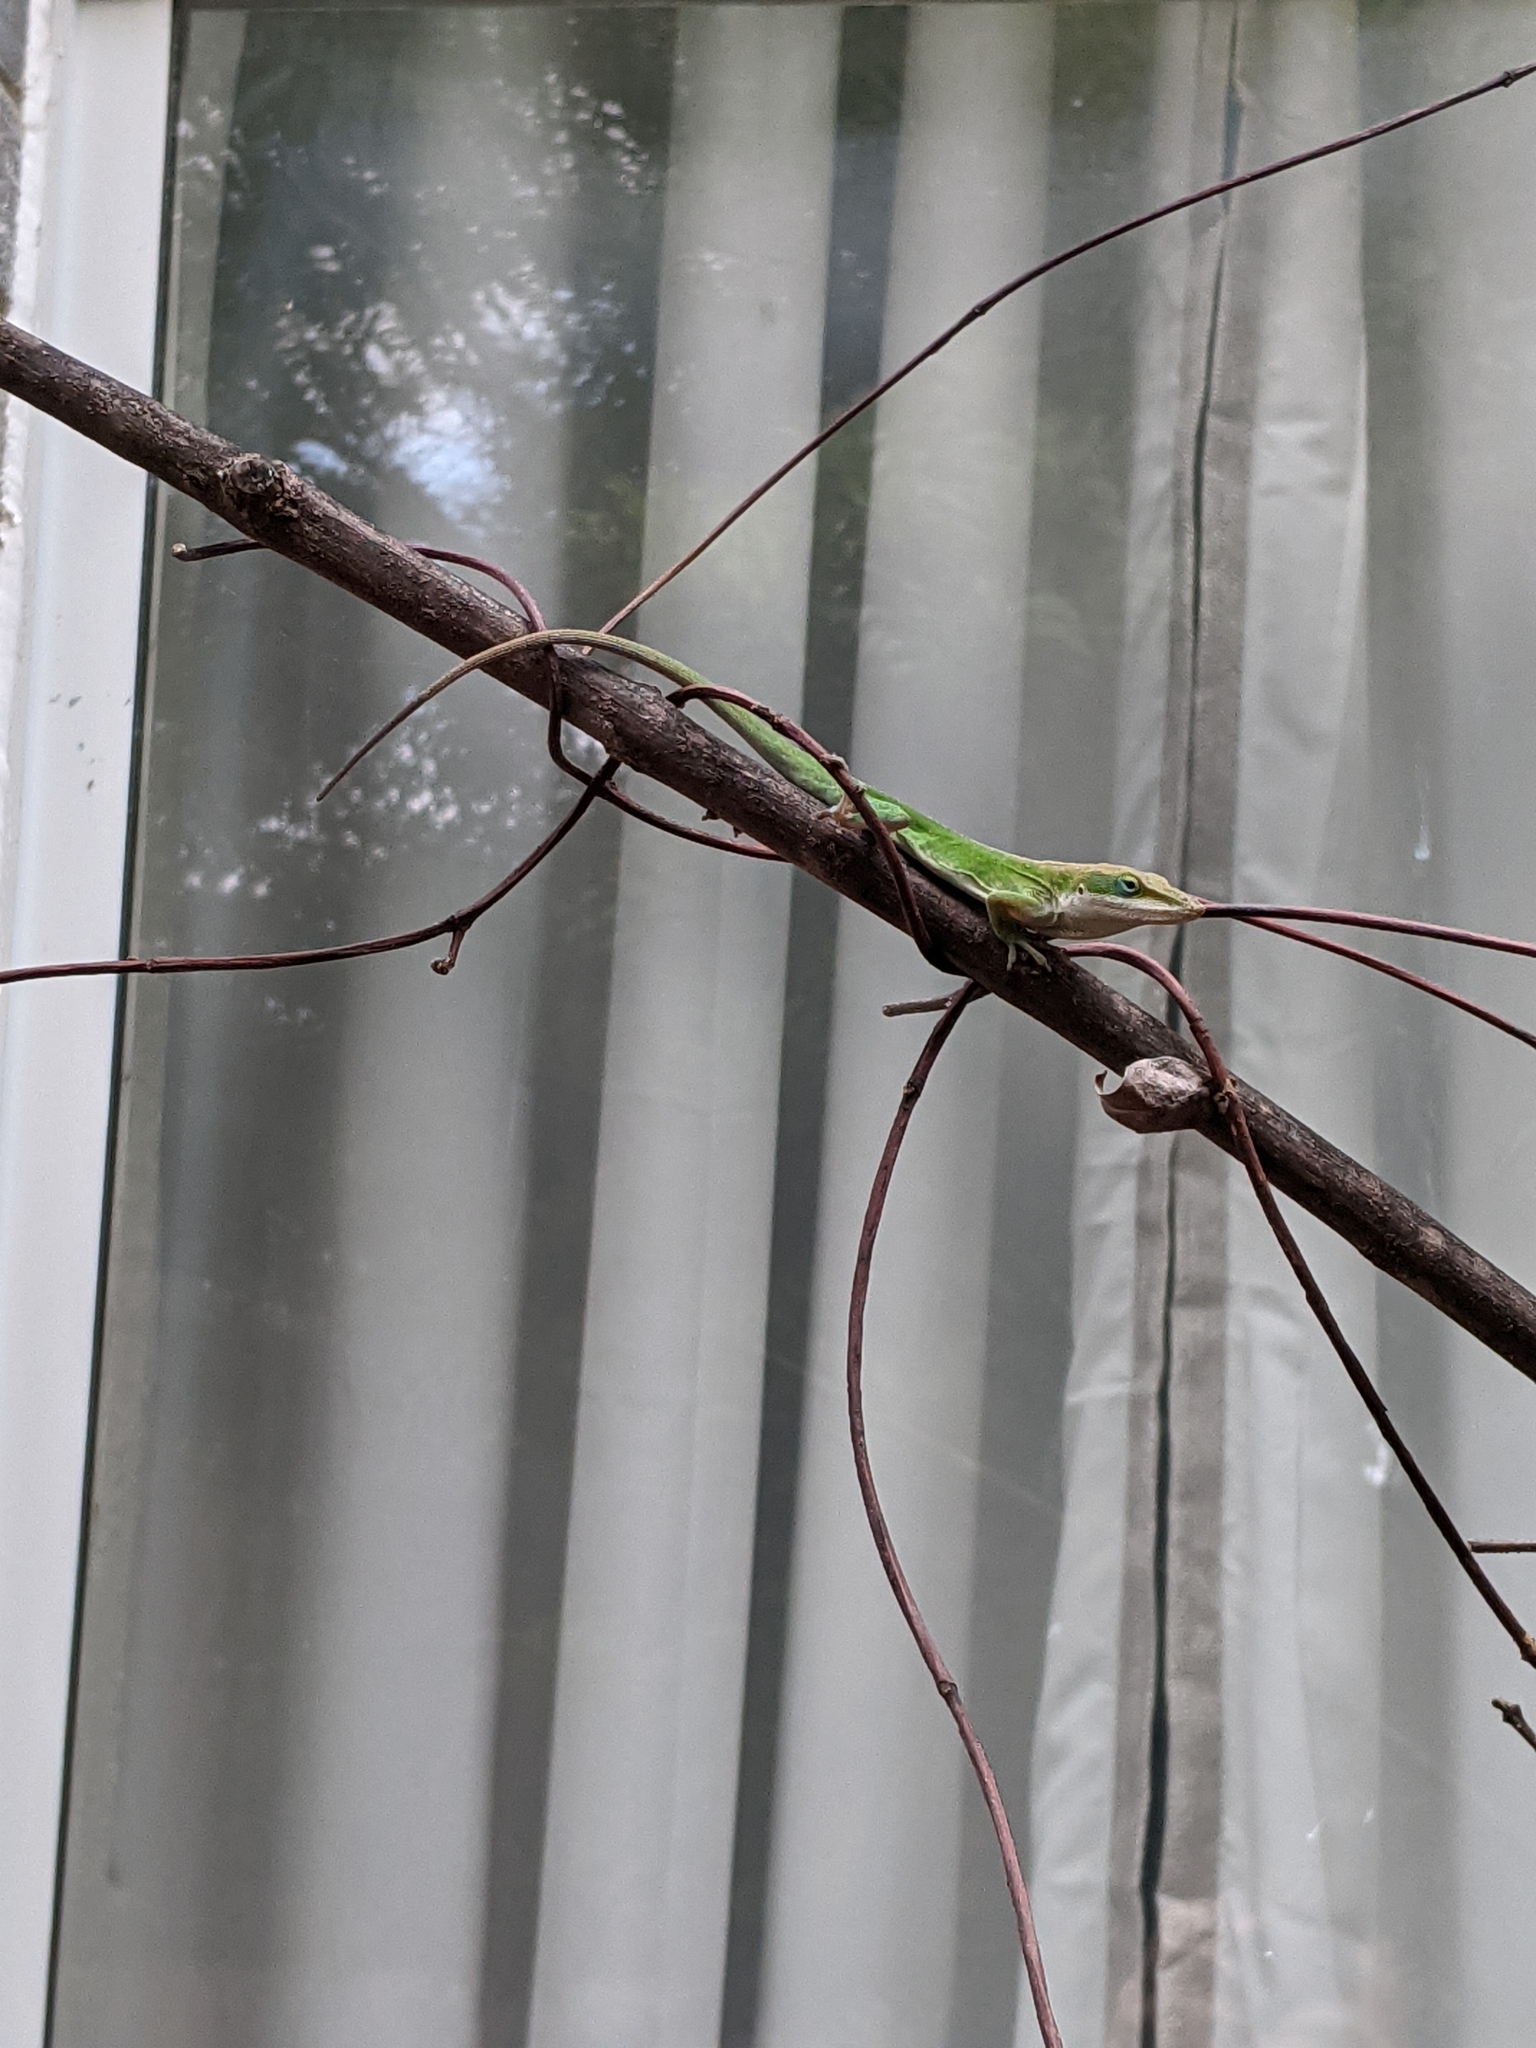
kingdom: Animalia
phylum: Chordata
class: Squamata
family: Dactyloidae
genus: Anolis
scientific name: Anolis carolinensis
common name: Green anole
